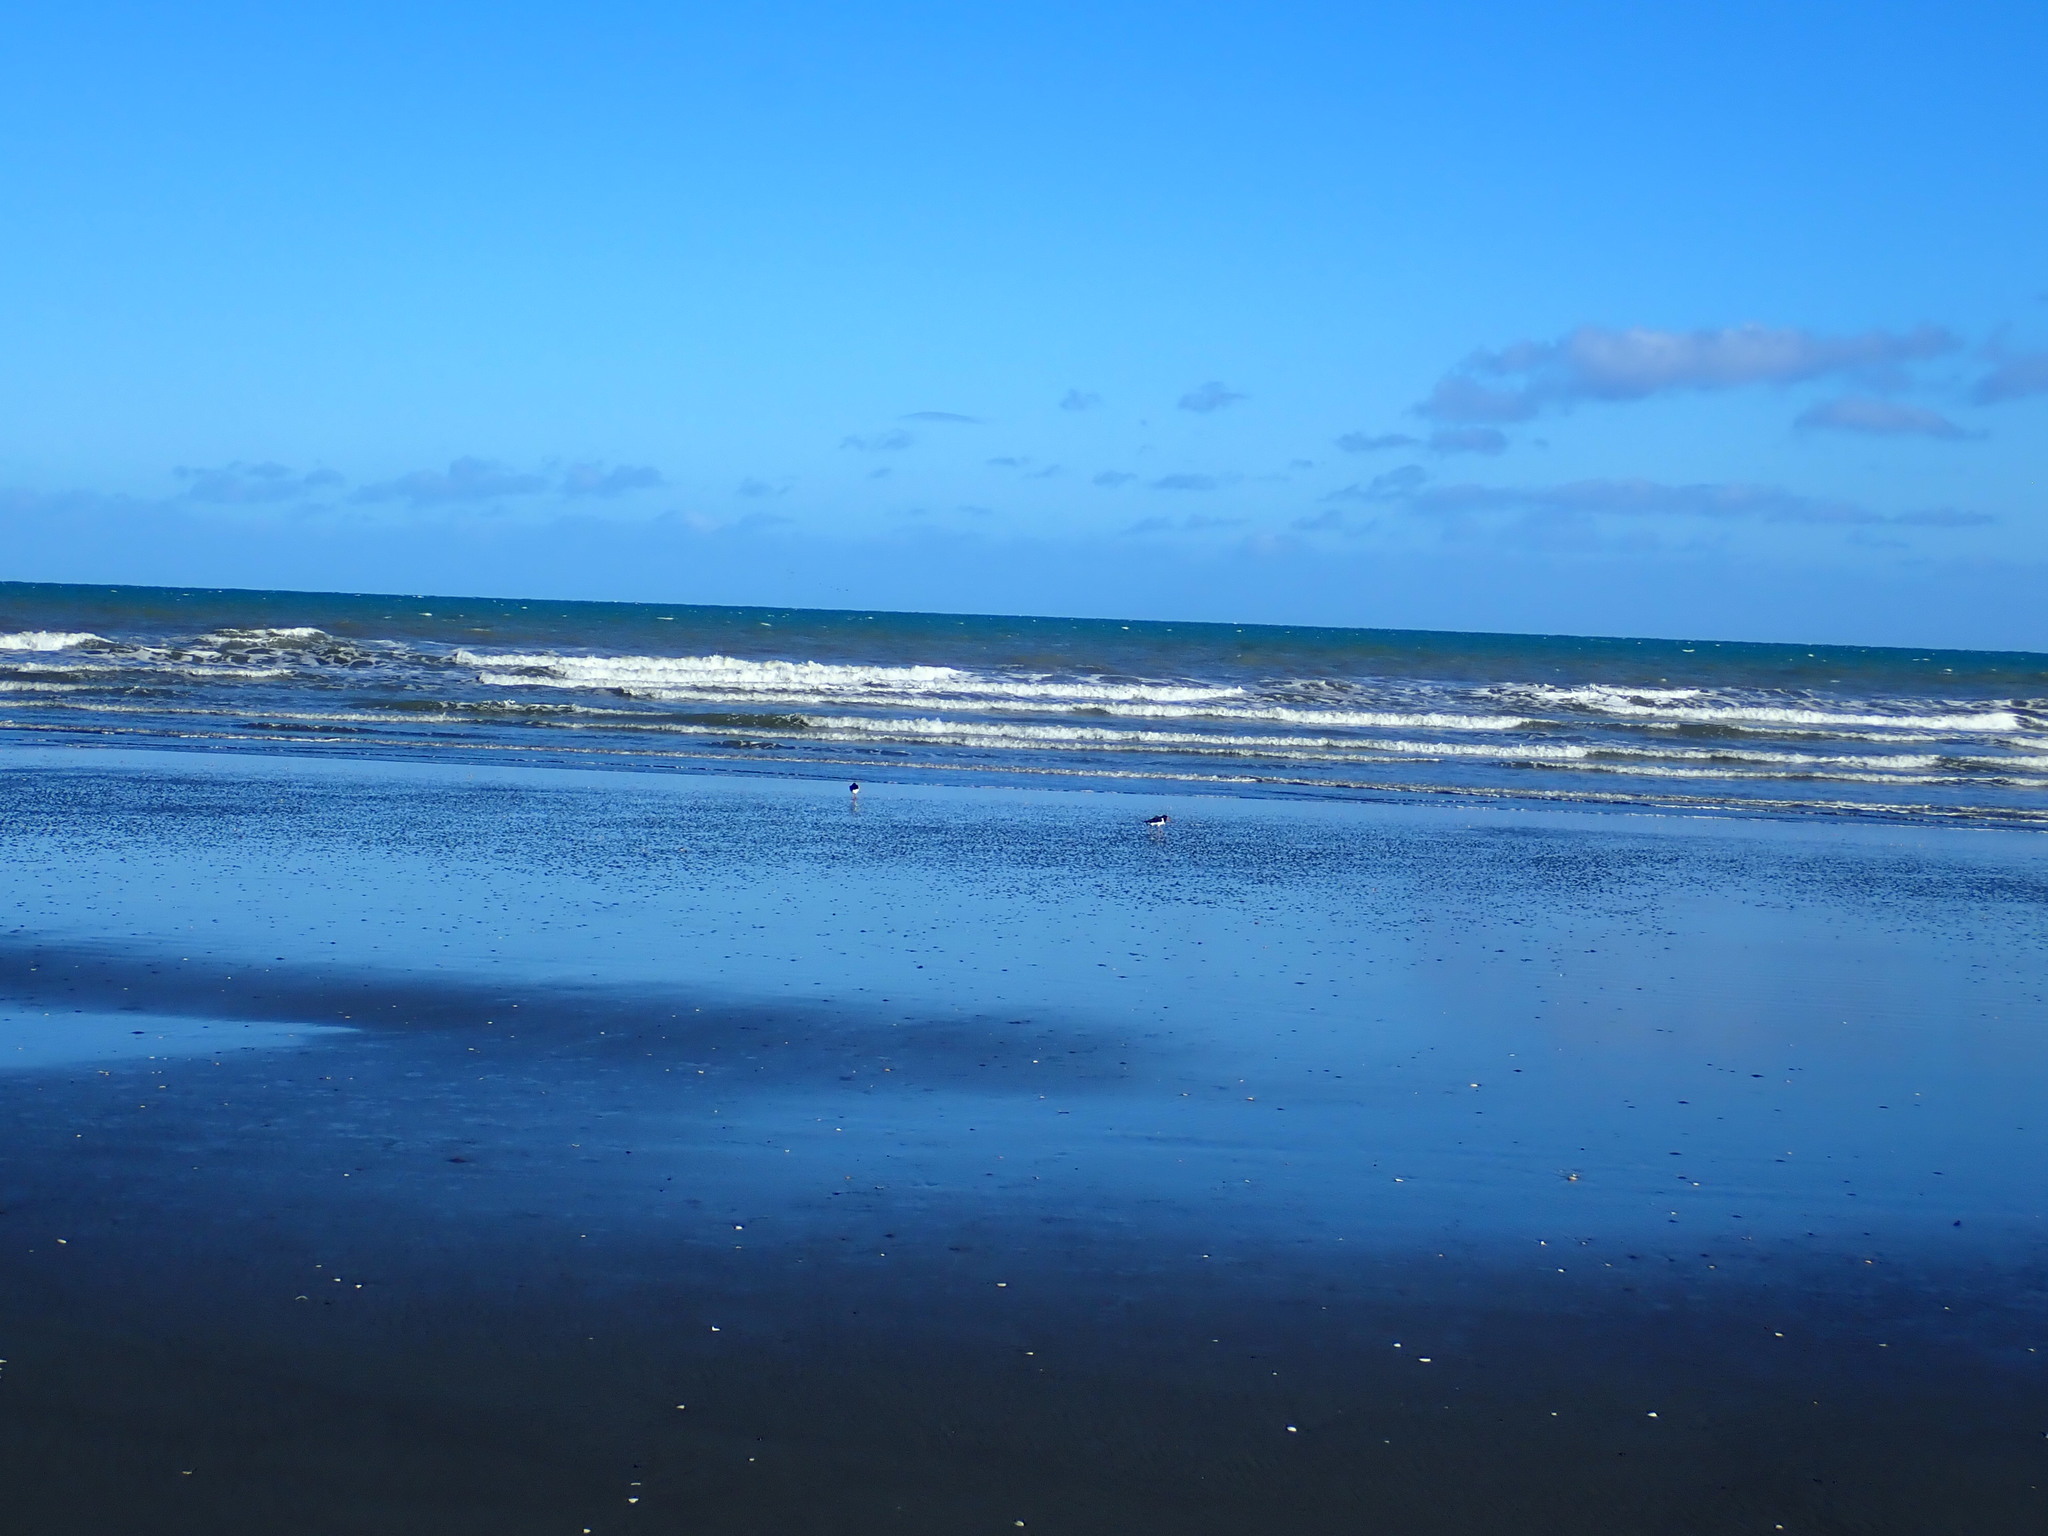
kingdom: Animalia
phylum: Chordata
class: Aves
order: Charadriiformes
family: Haematopodidae
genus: Haematopus
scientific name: Haematopus finschi
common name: South island oystercatcher
